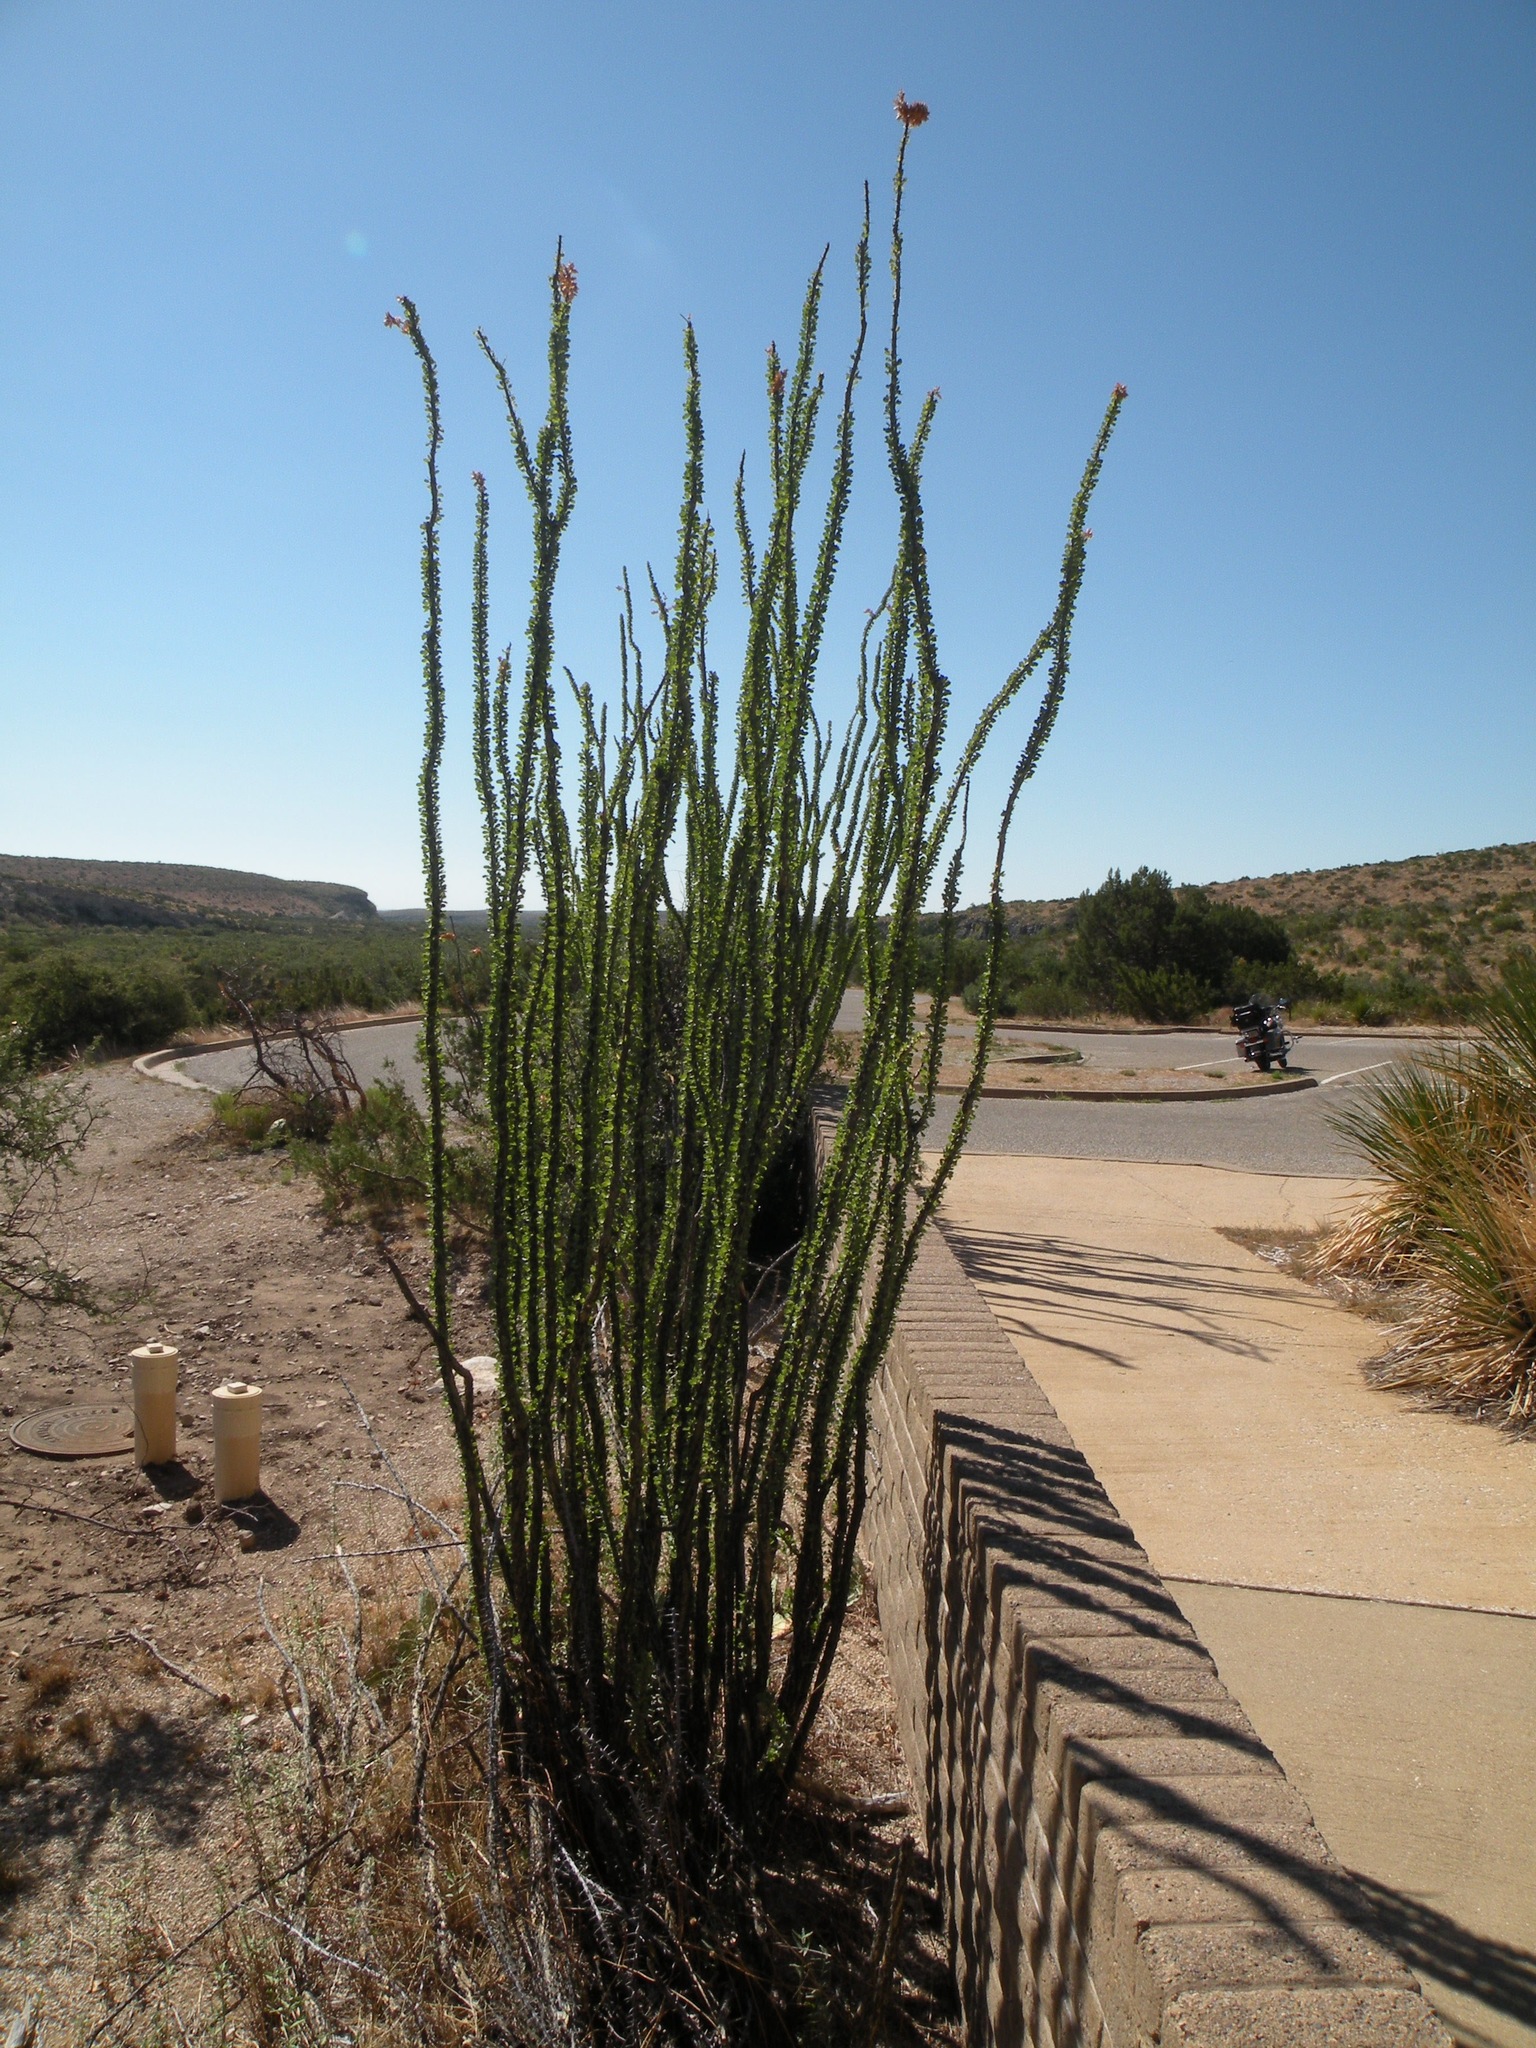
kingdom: Plantae
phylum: Tracheophyta
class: Magnoliopsida
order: Ericales
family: Fouquieriaceae
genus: Fouquieria
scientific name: Fouquieria splendens
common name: Vine-cactus
